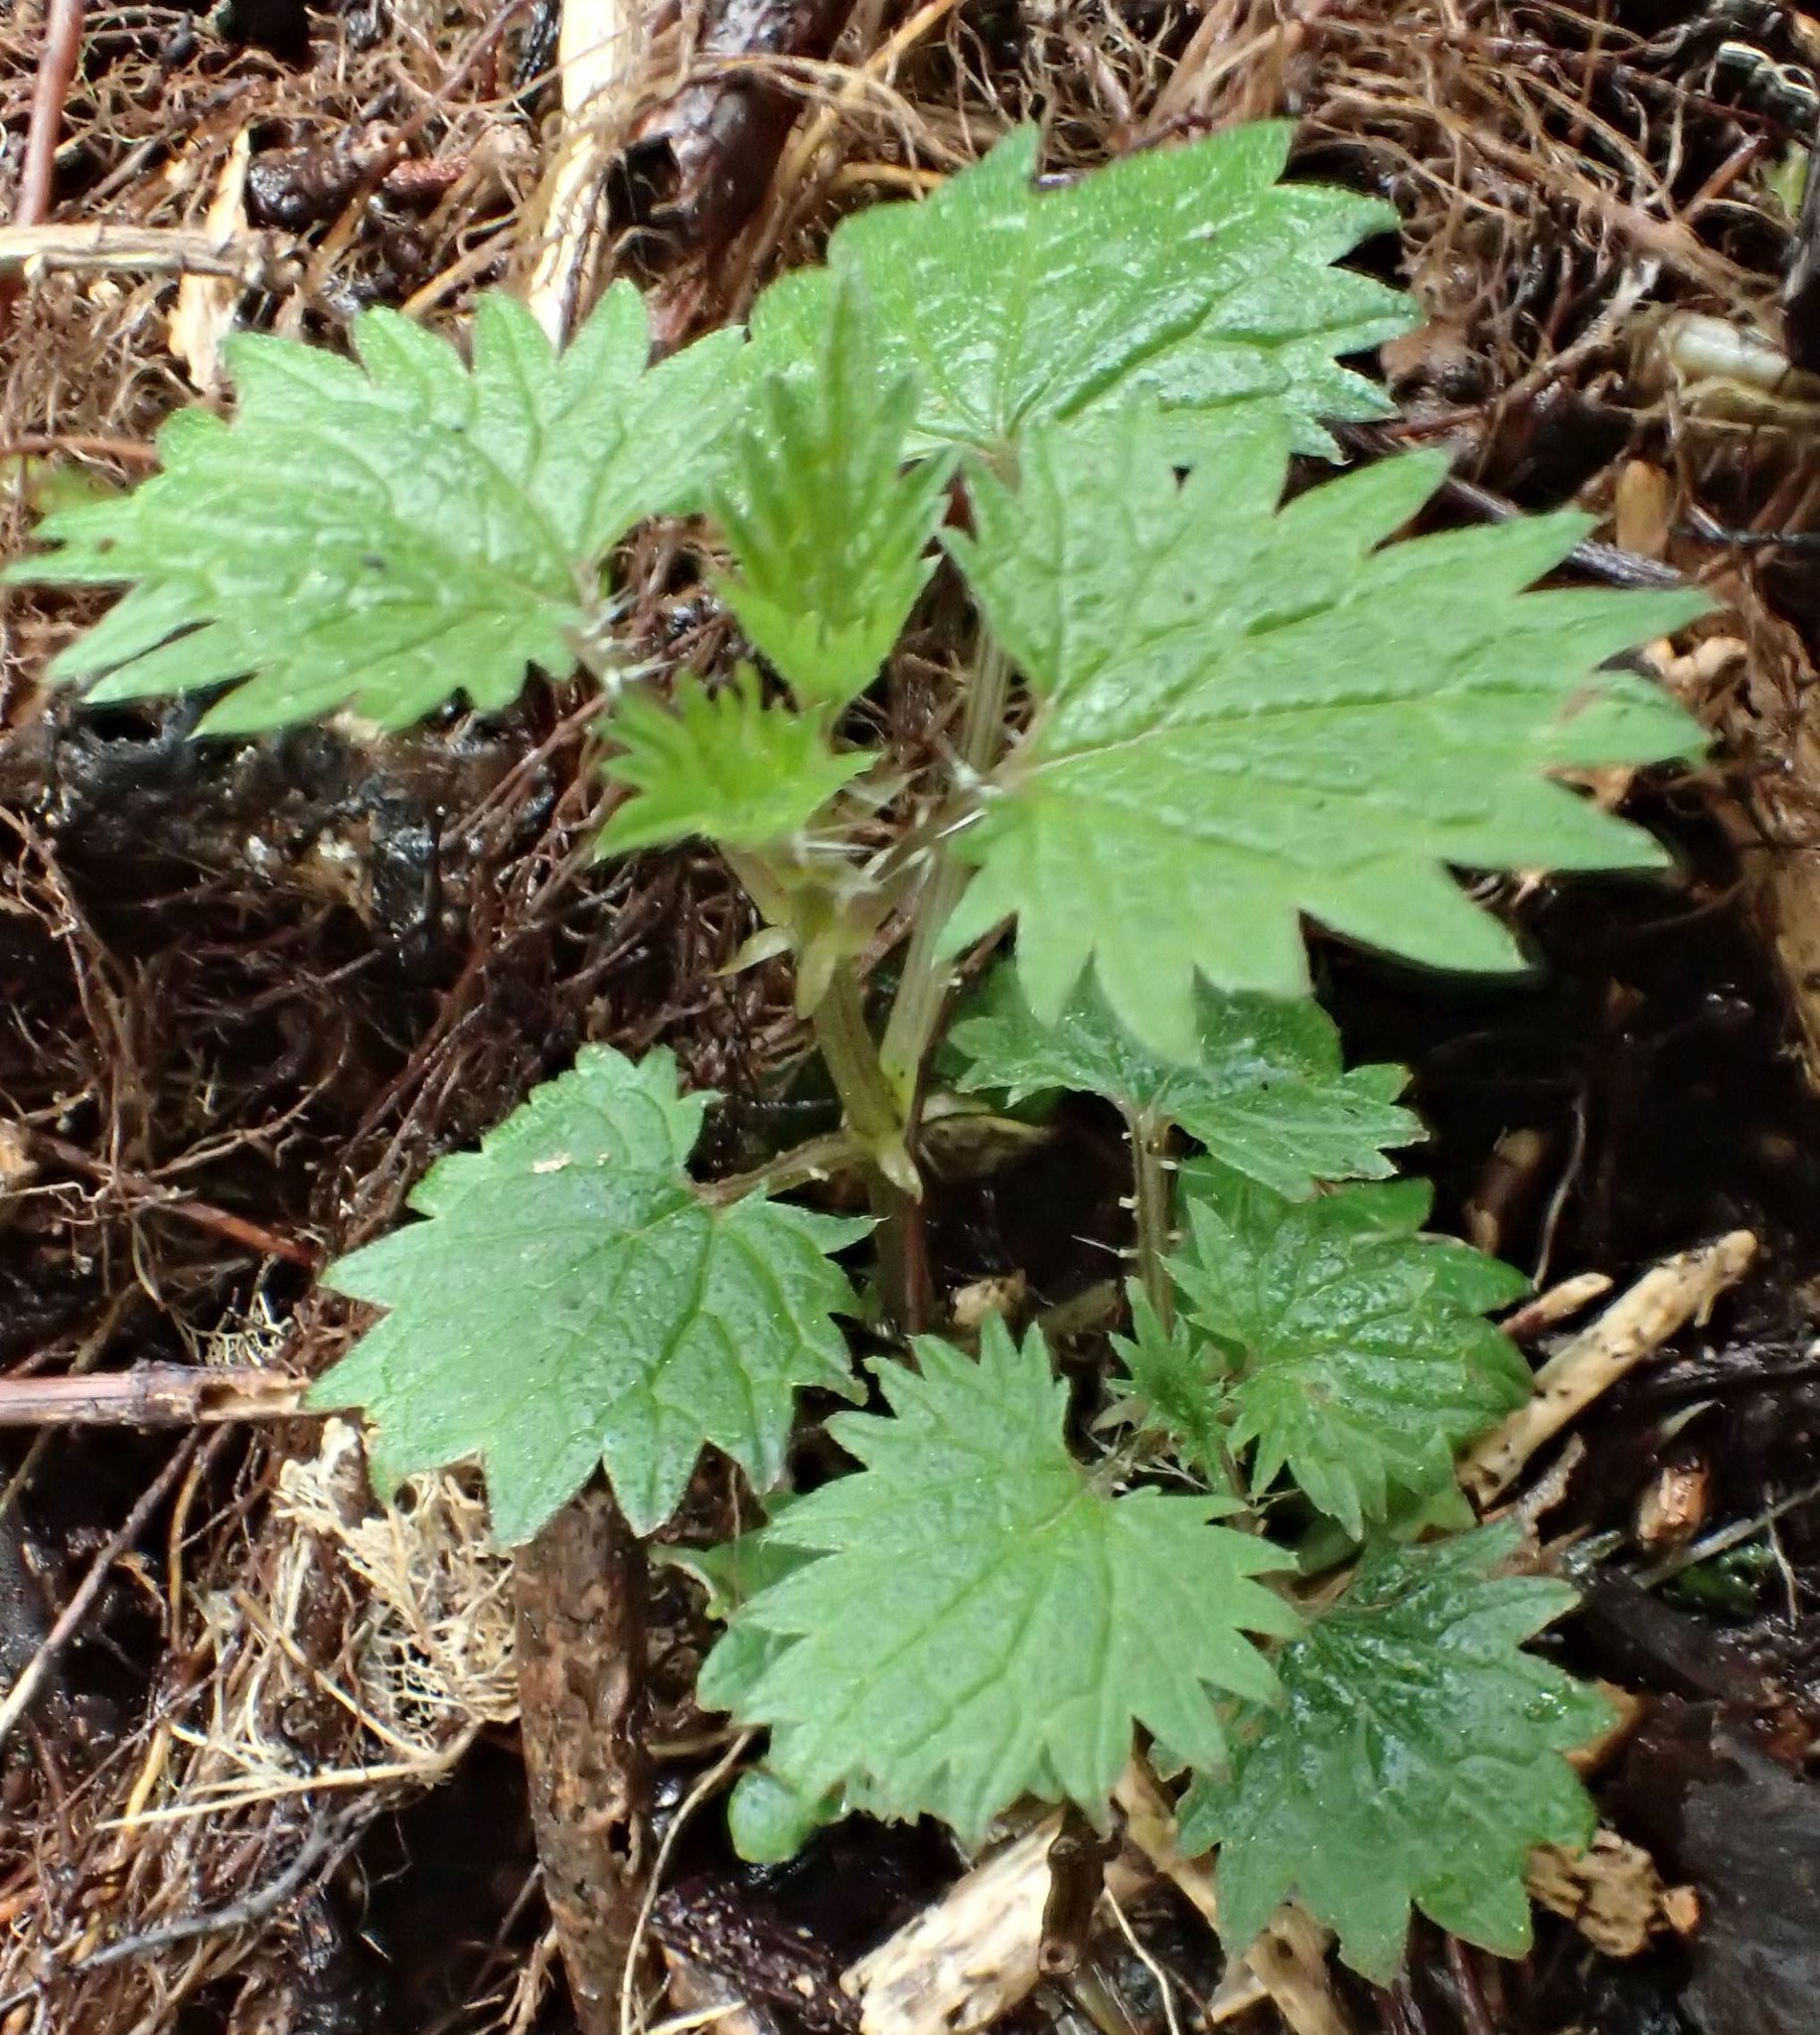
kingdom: Plantae
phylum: Tracheophyta
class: Magnoliopsida
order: Rosales
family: Urticaceae
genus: Urtica
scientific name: Urtica sykesii
